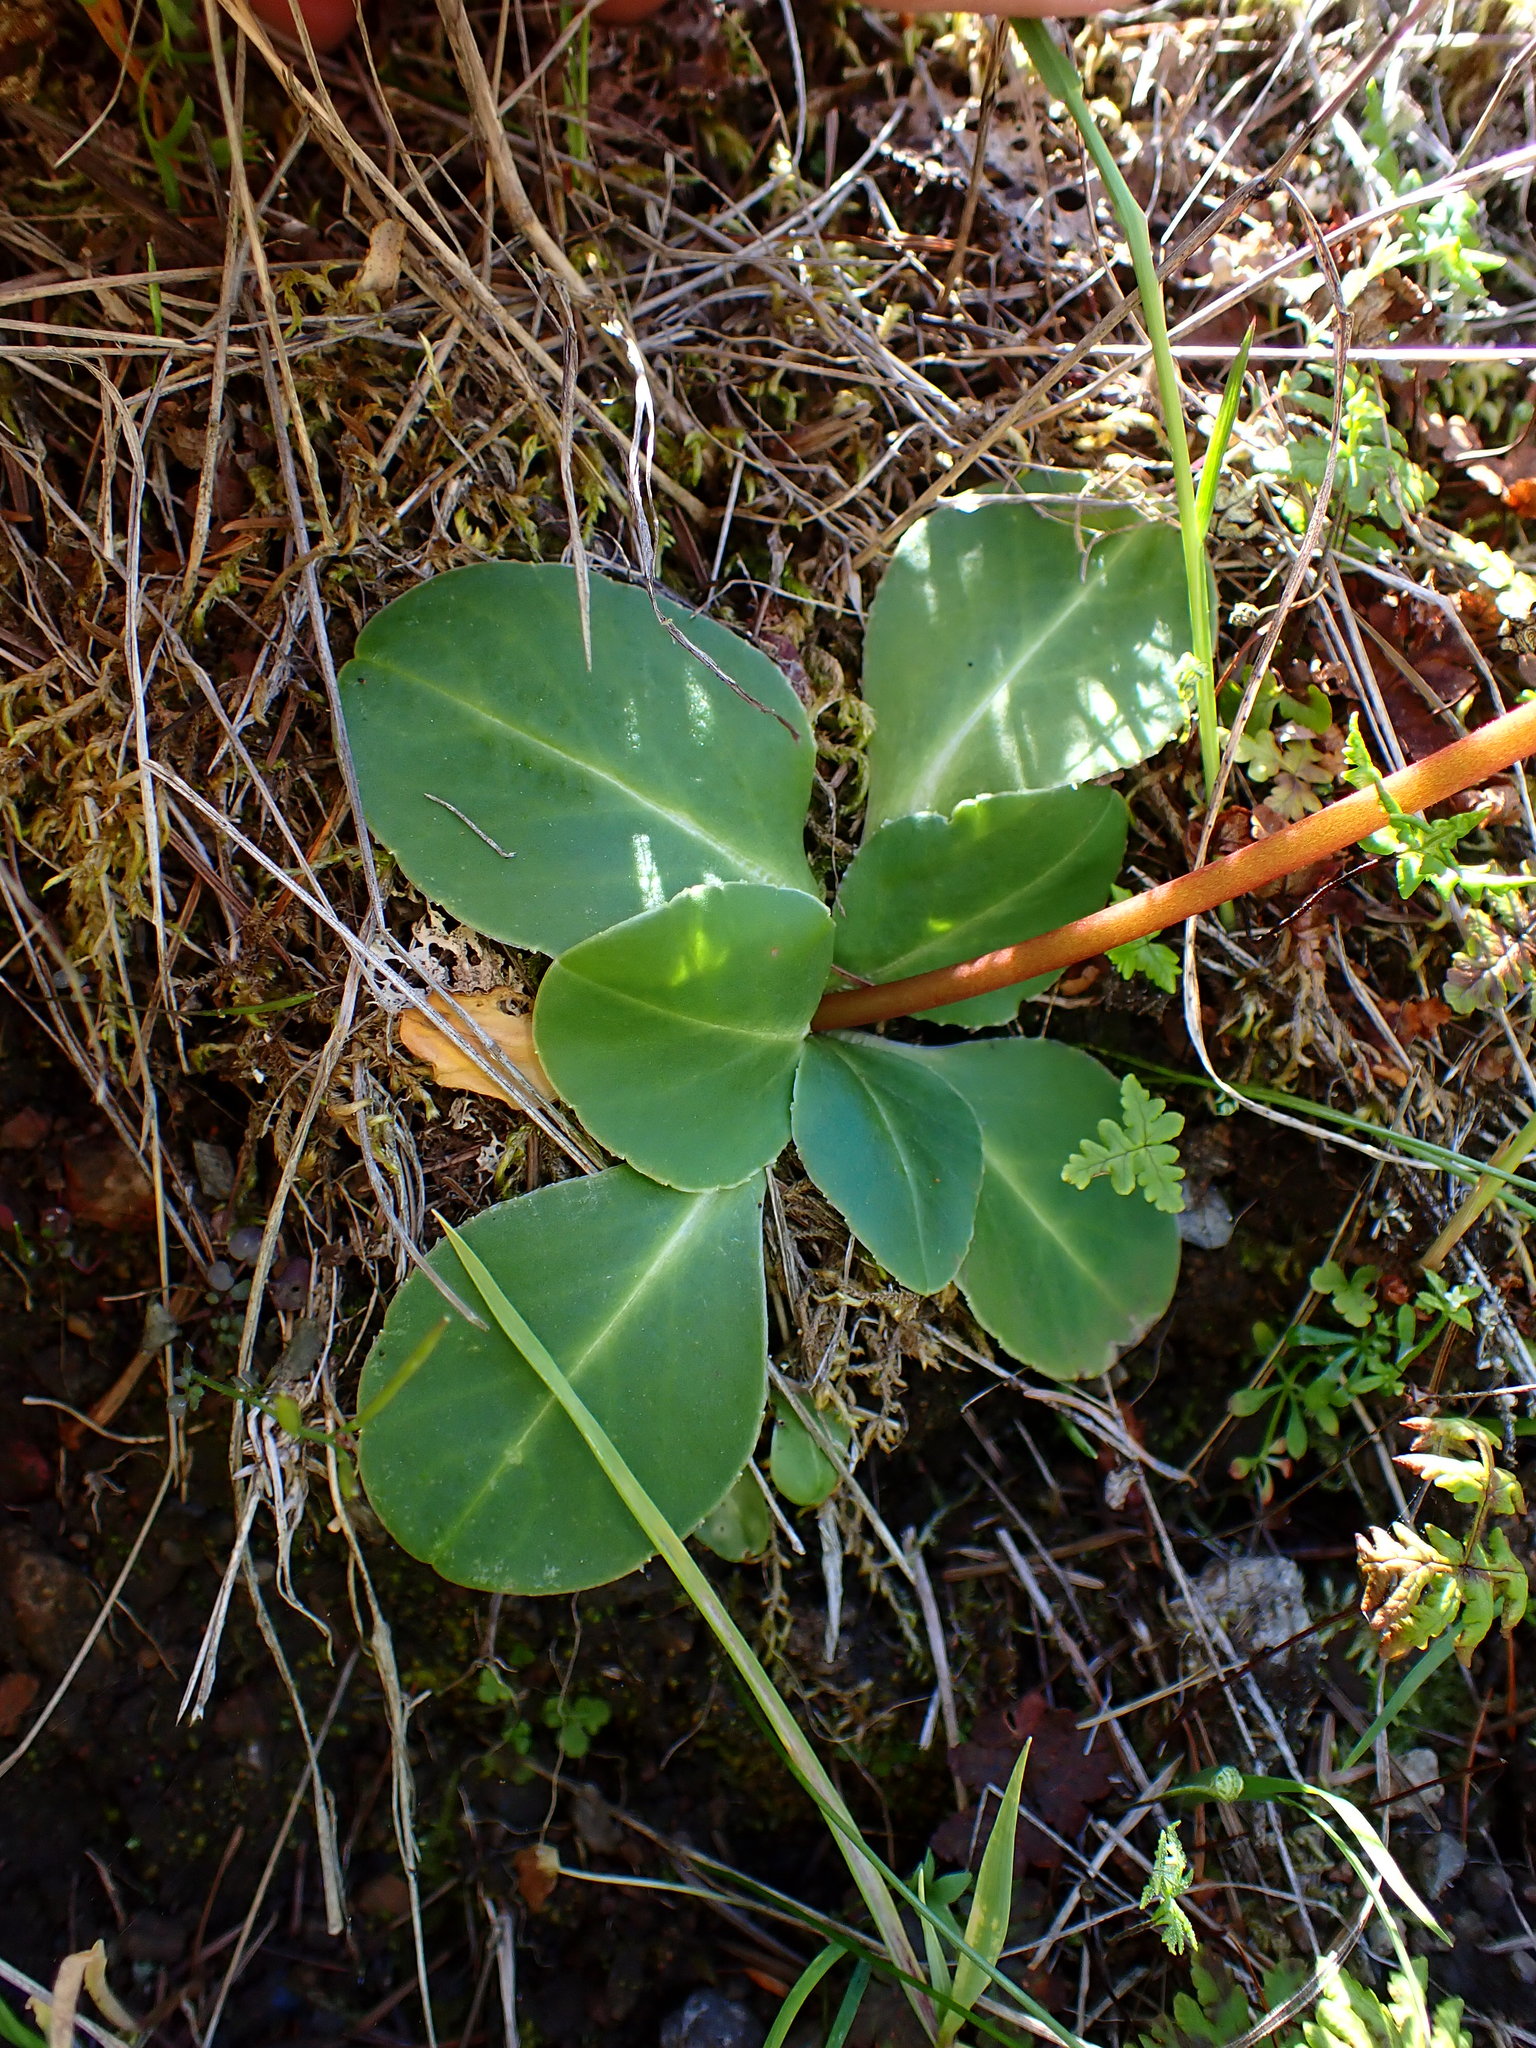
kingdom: Plantae
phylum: Tracheophyta
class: Magnoliopsida
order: Ericales
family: Primulaceae
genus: Dodecatheon
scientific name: Dodecatheon hendersonii
